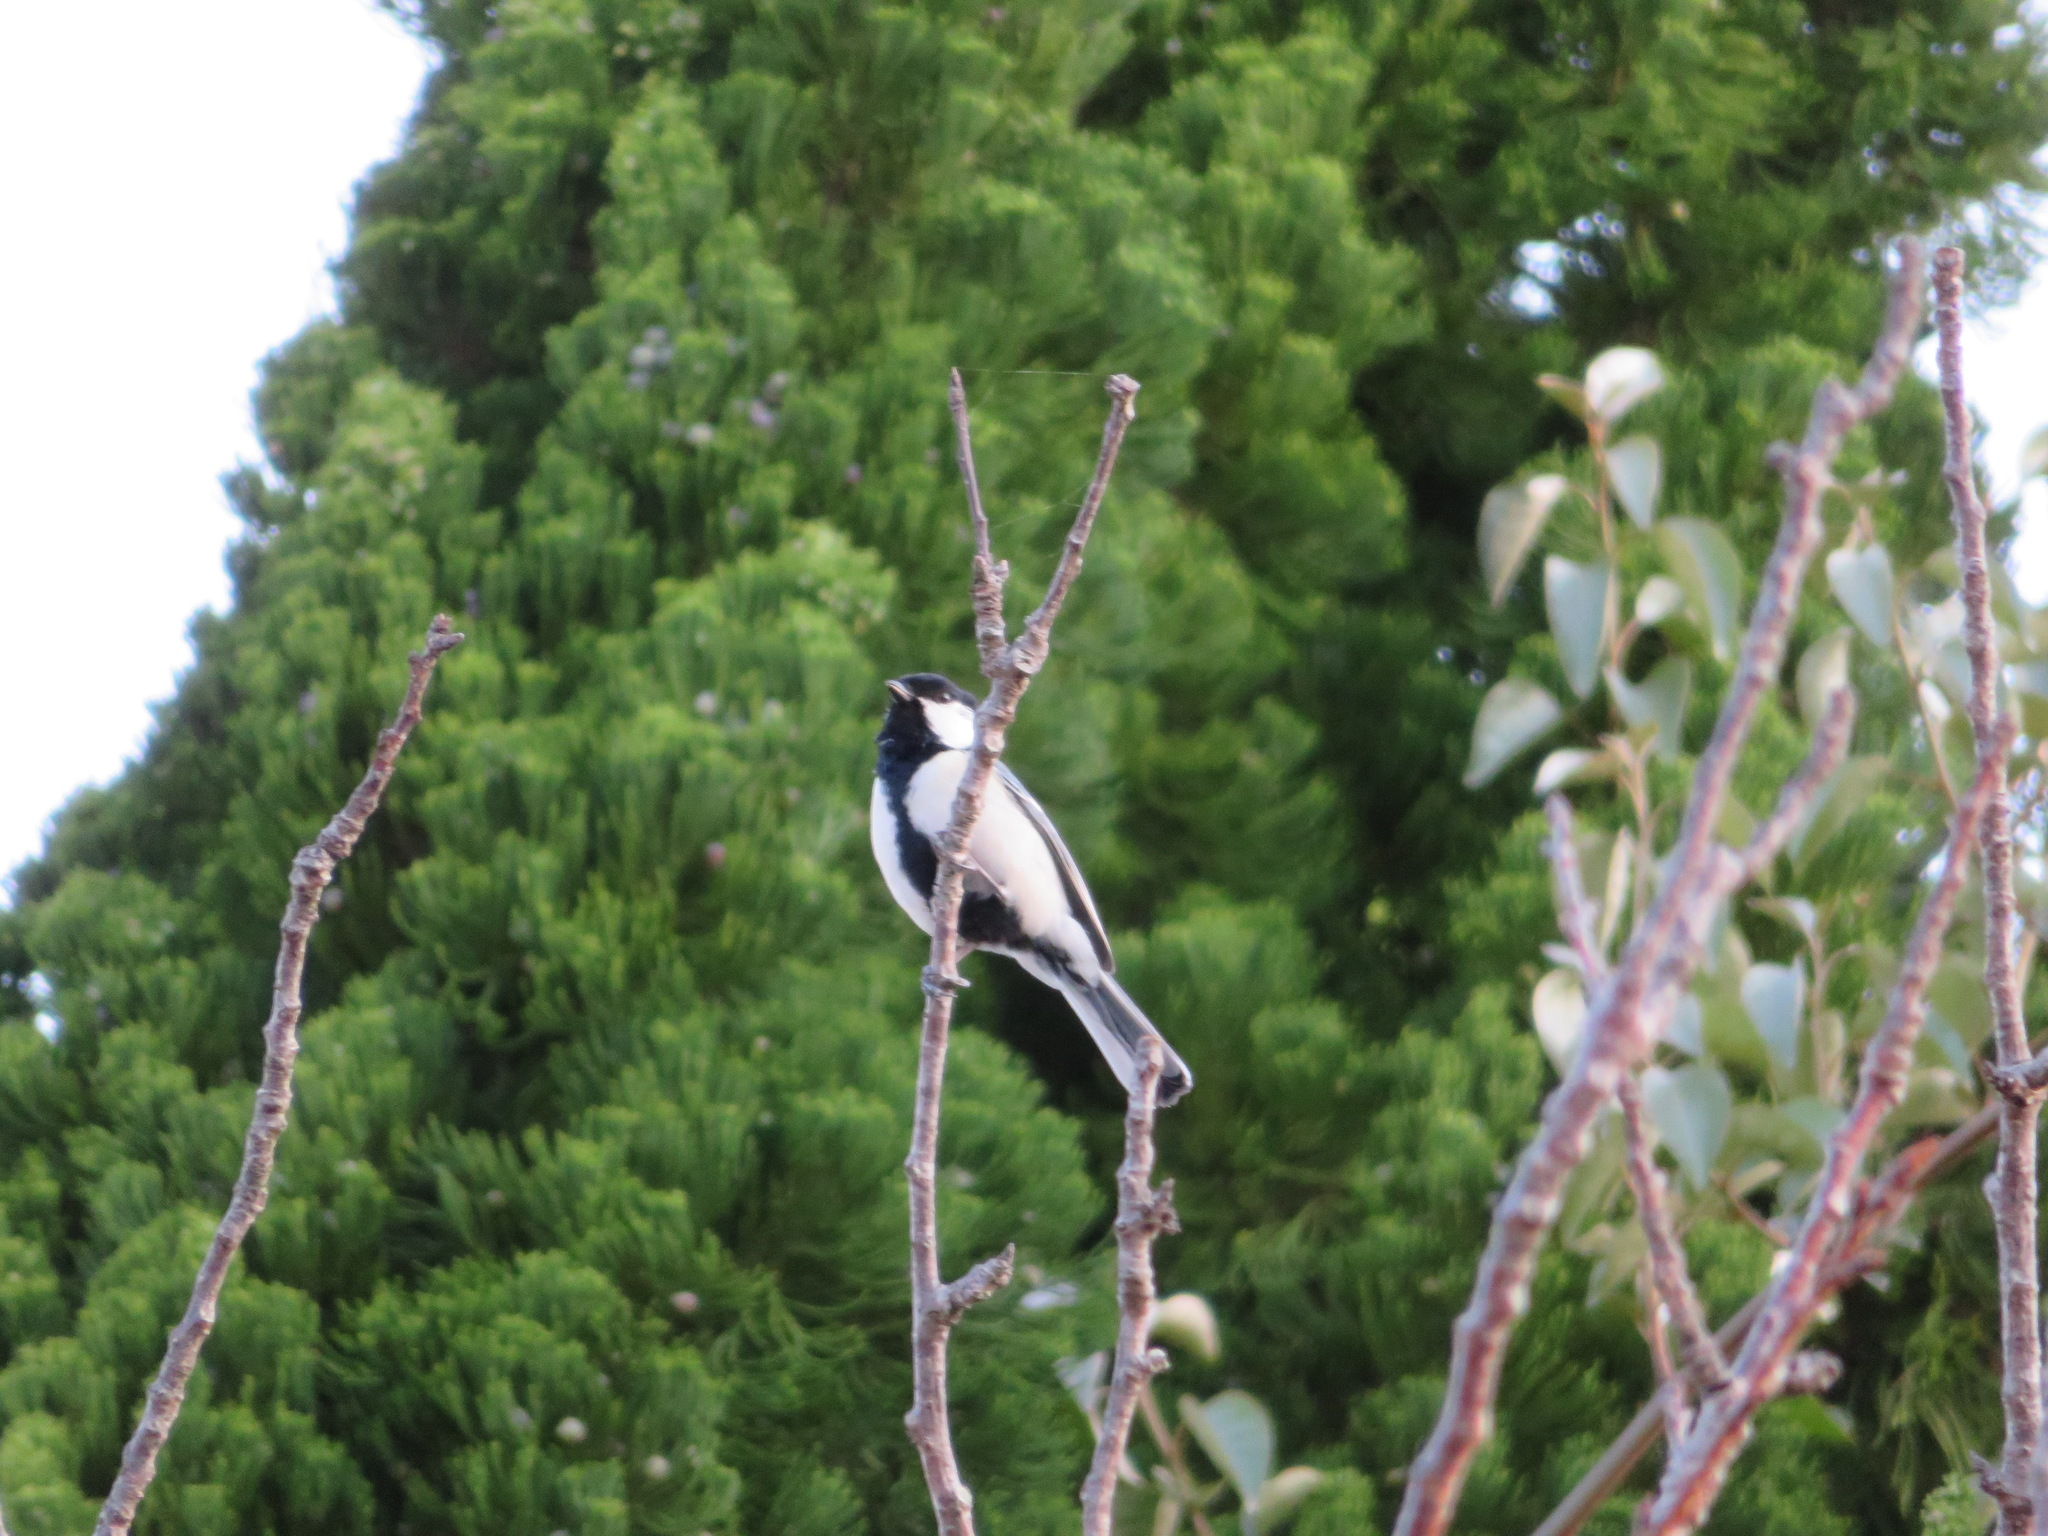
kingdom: Animalia
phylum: Chordata
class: Aves
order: Passeriformes
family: Paridae
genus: Parus
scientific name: Parus minor
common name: Japanese tit
